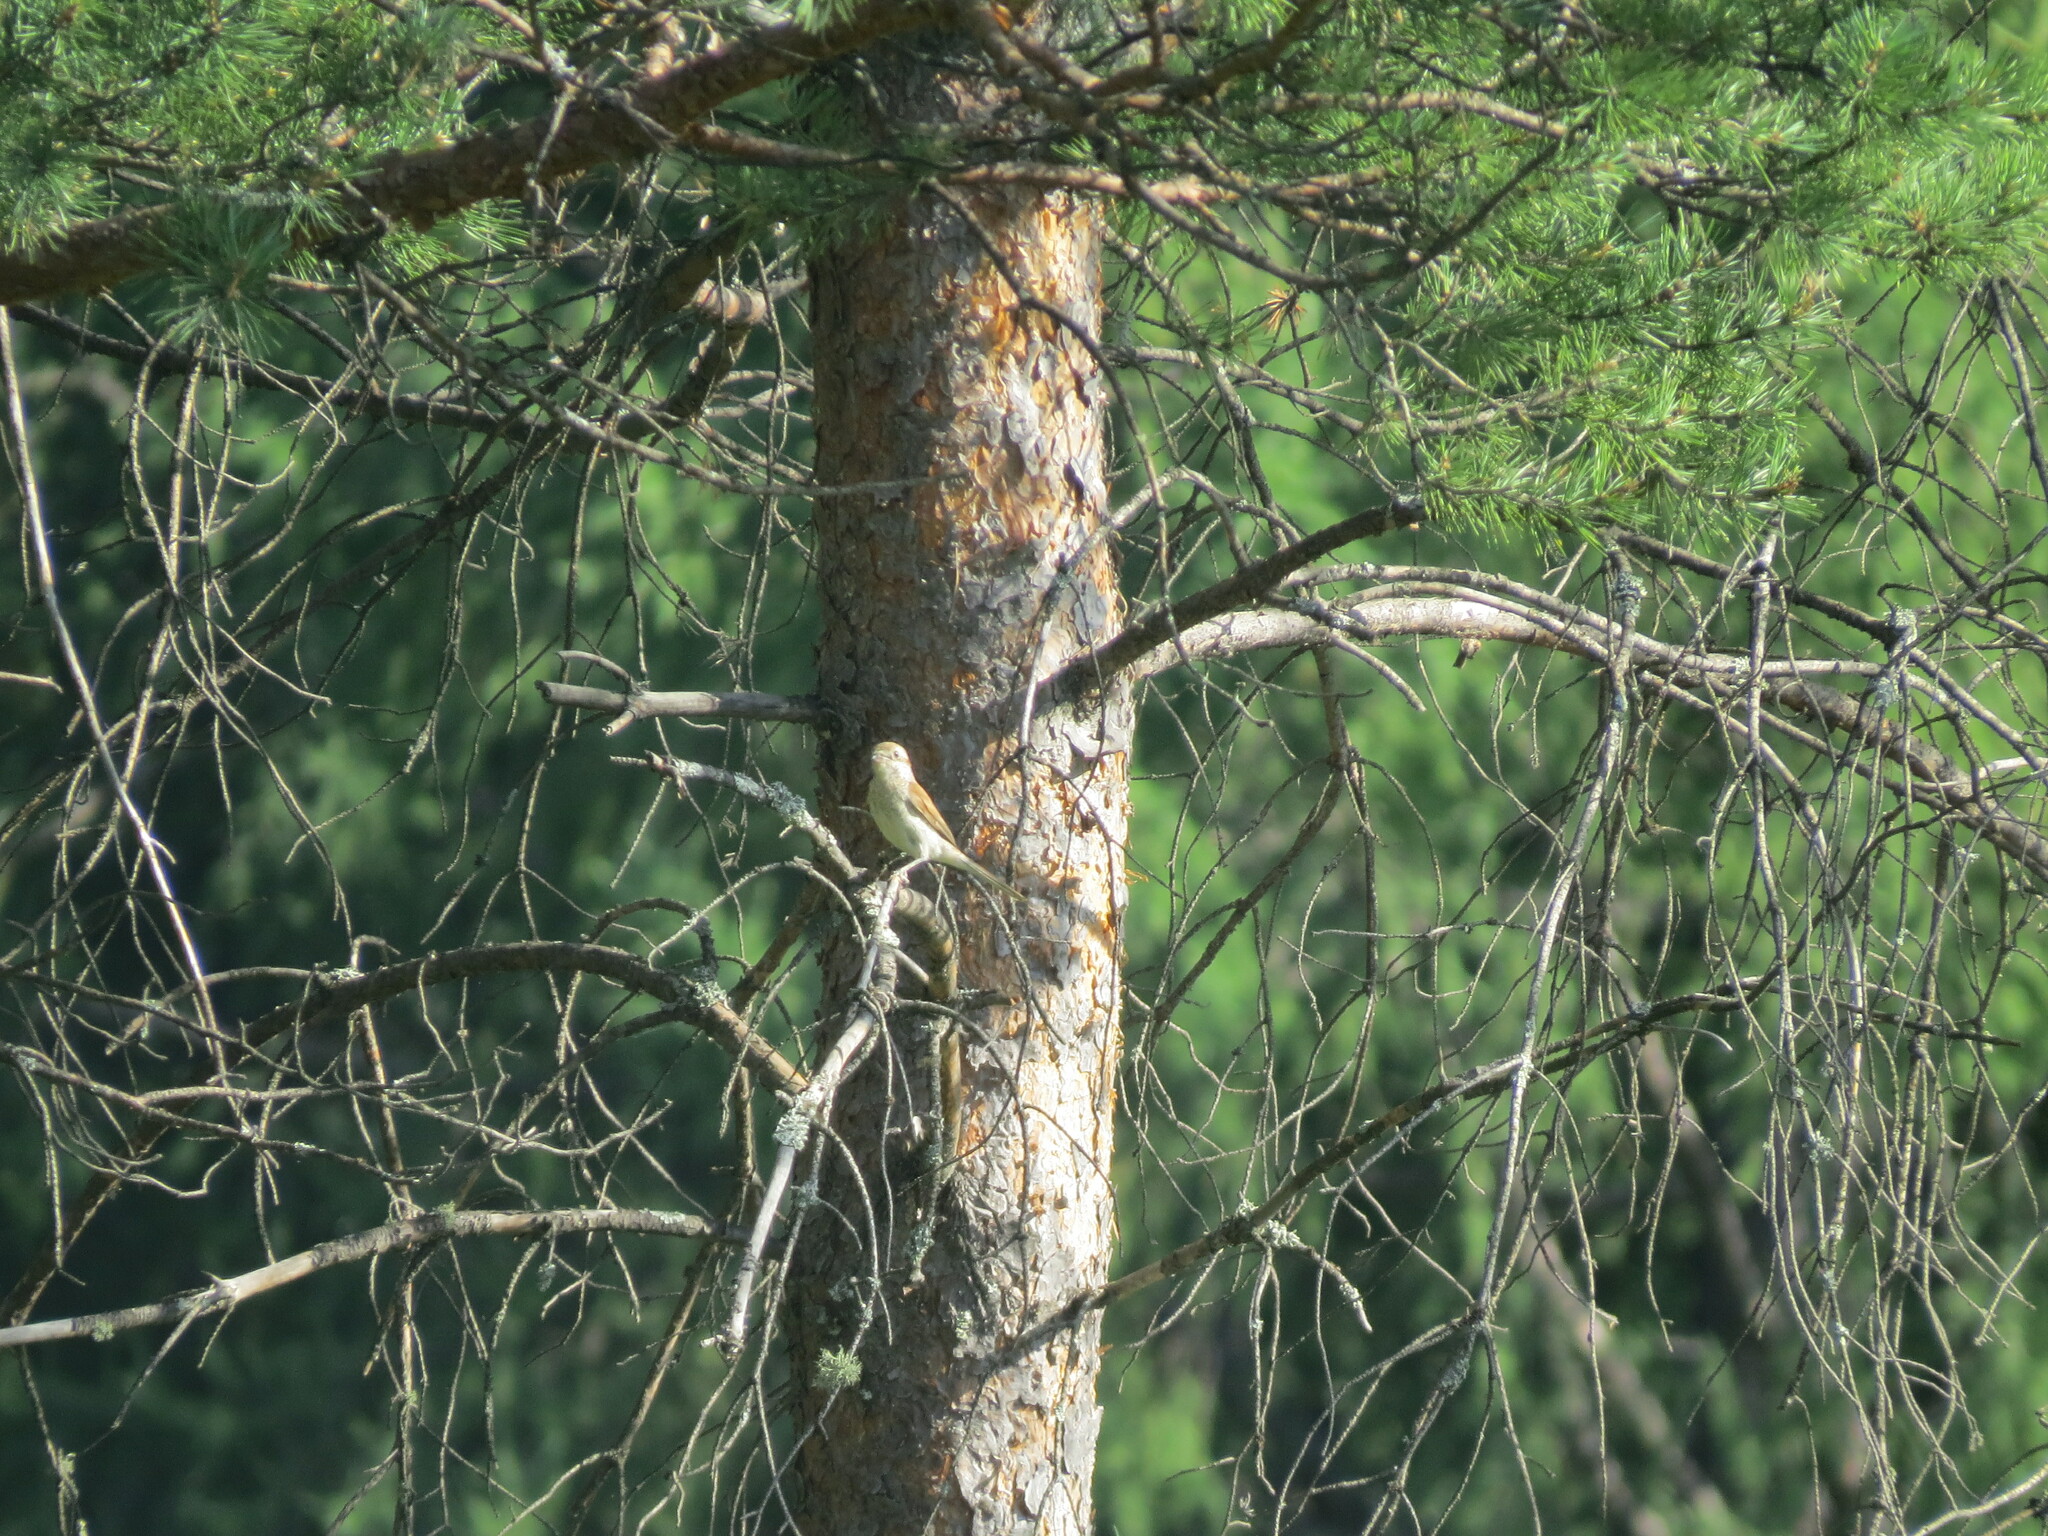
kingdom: Animalia
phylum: Chordata
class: Aves
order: Passeriformes
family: Laniidae
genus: Lanius
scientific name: Lanius collurio
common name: Red-backed shrike
